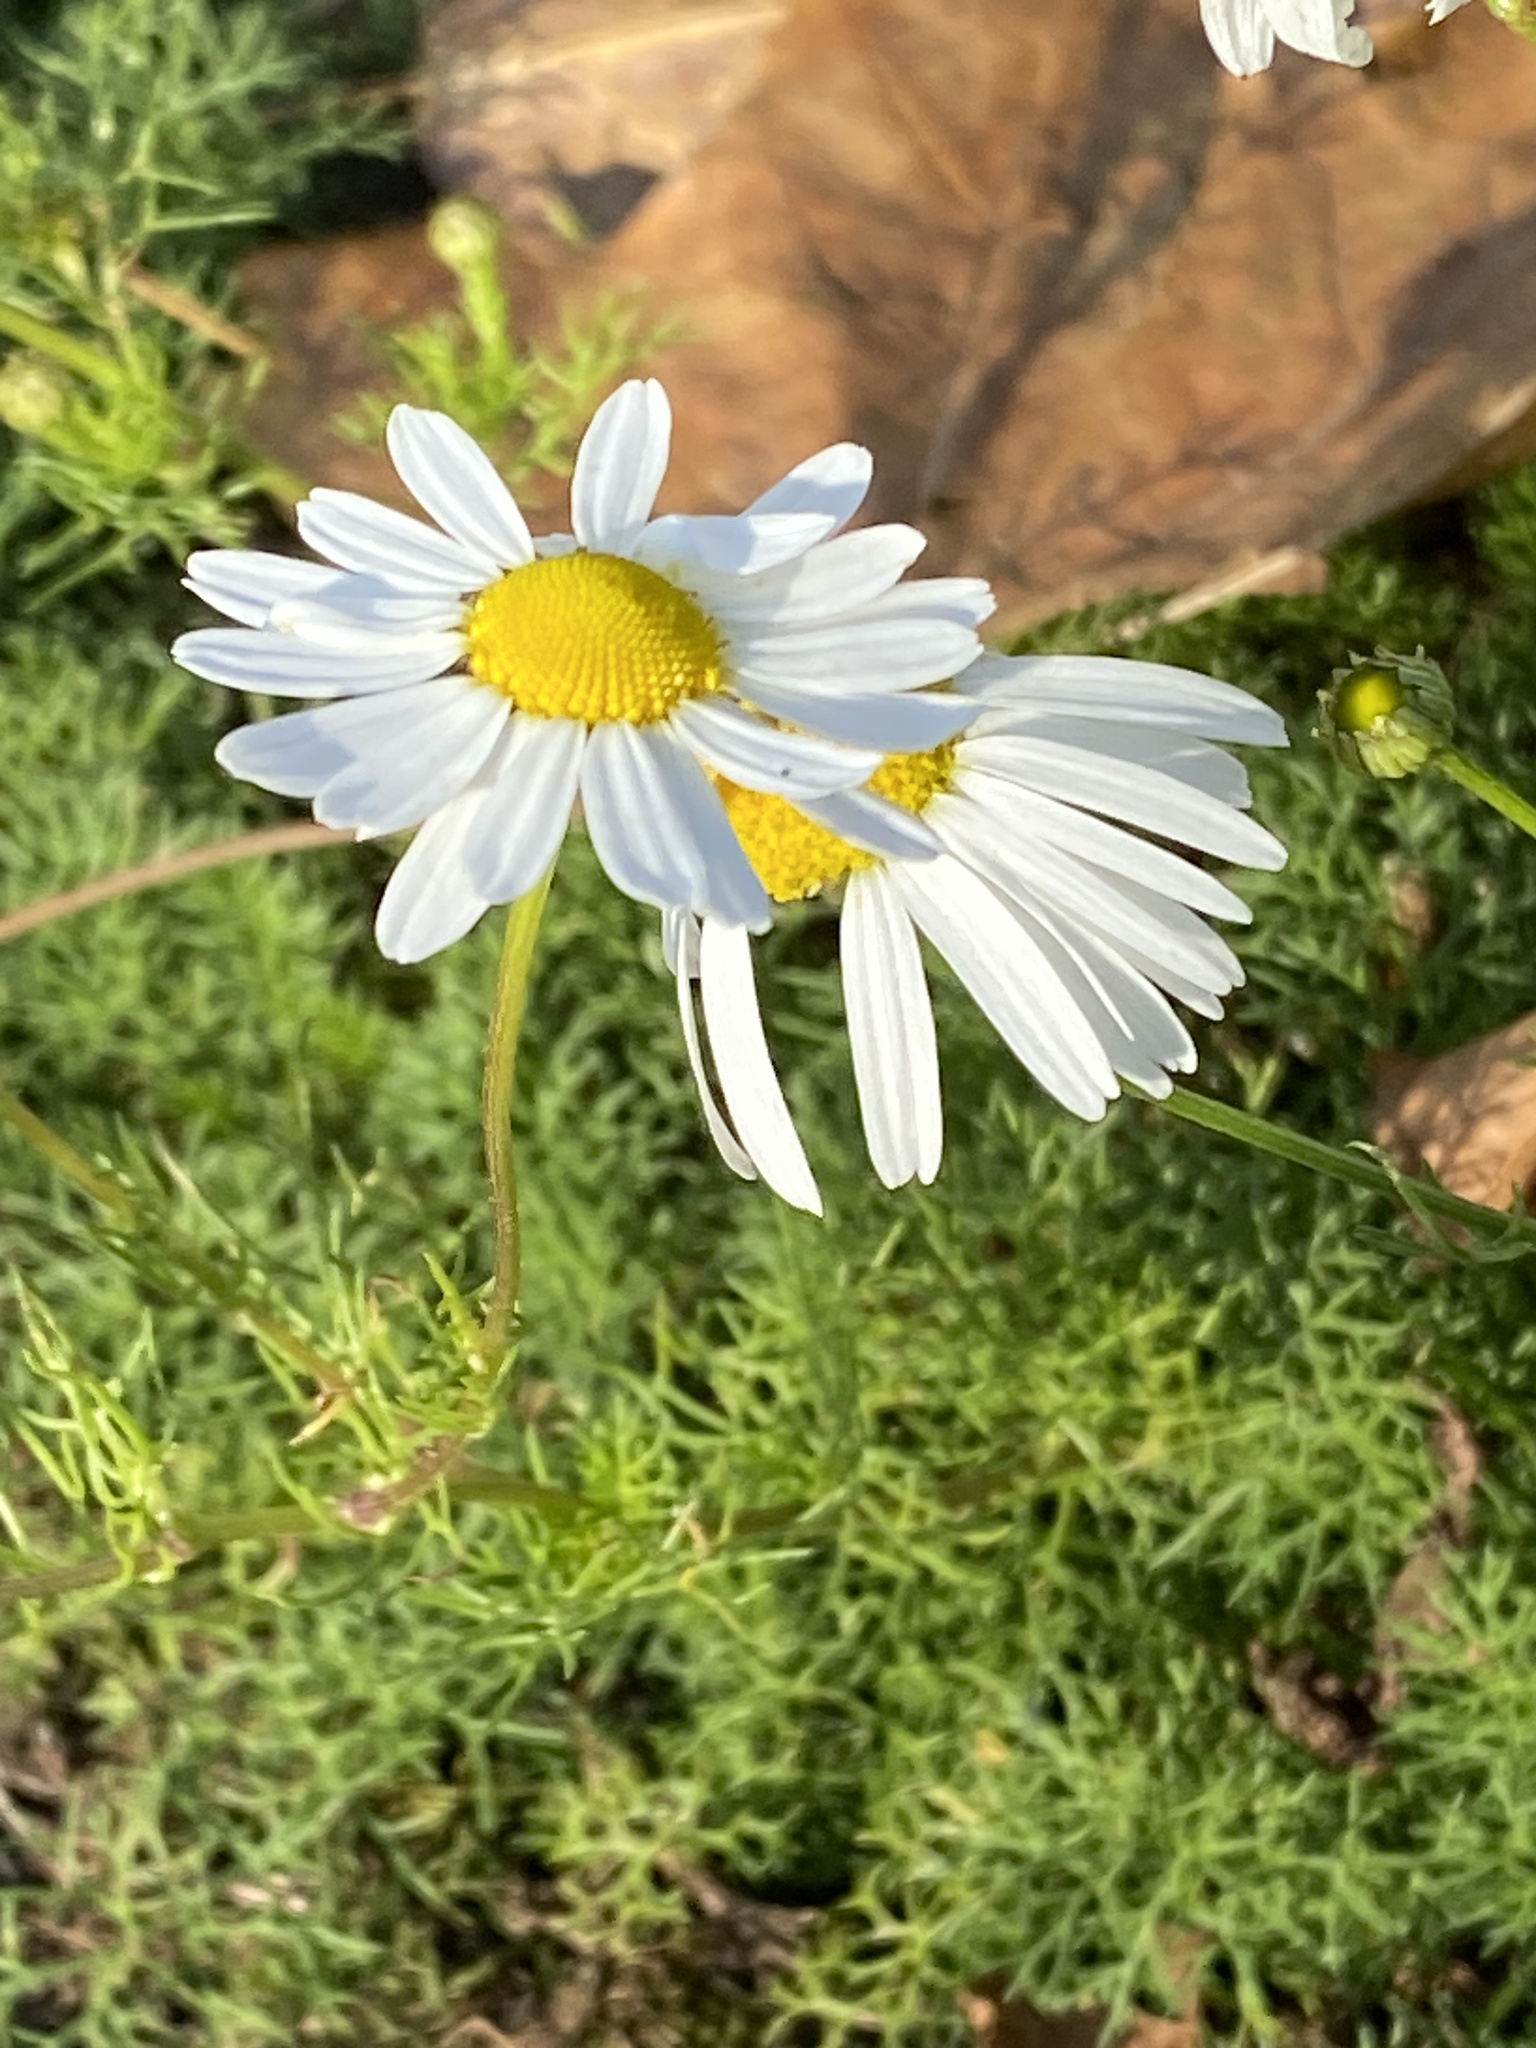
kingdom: Plantae
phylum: Tracheophyta
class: Magnoliopsida
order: Asterales
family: Asteraceae
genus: Tripleurospermum
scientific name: Tripleurospermum inodorum
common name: Scentless mayweed
